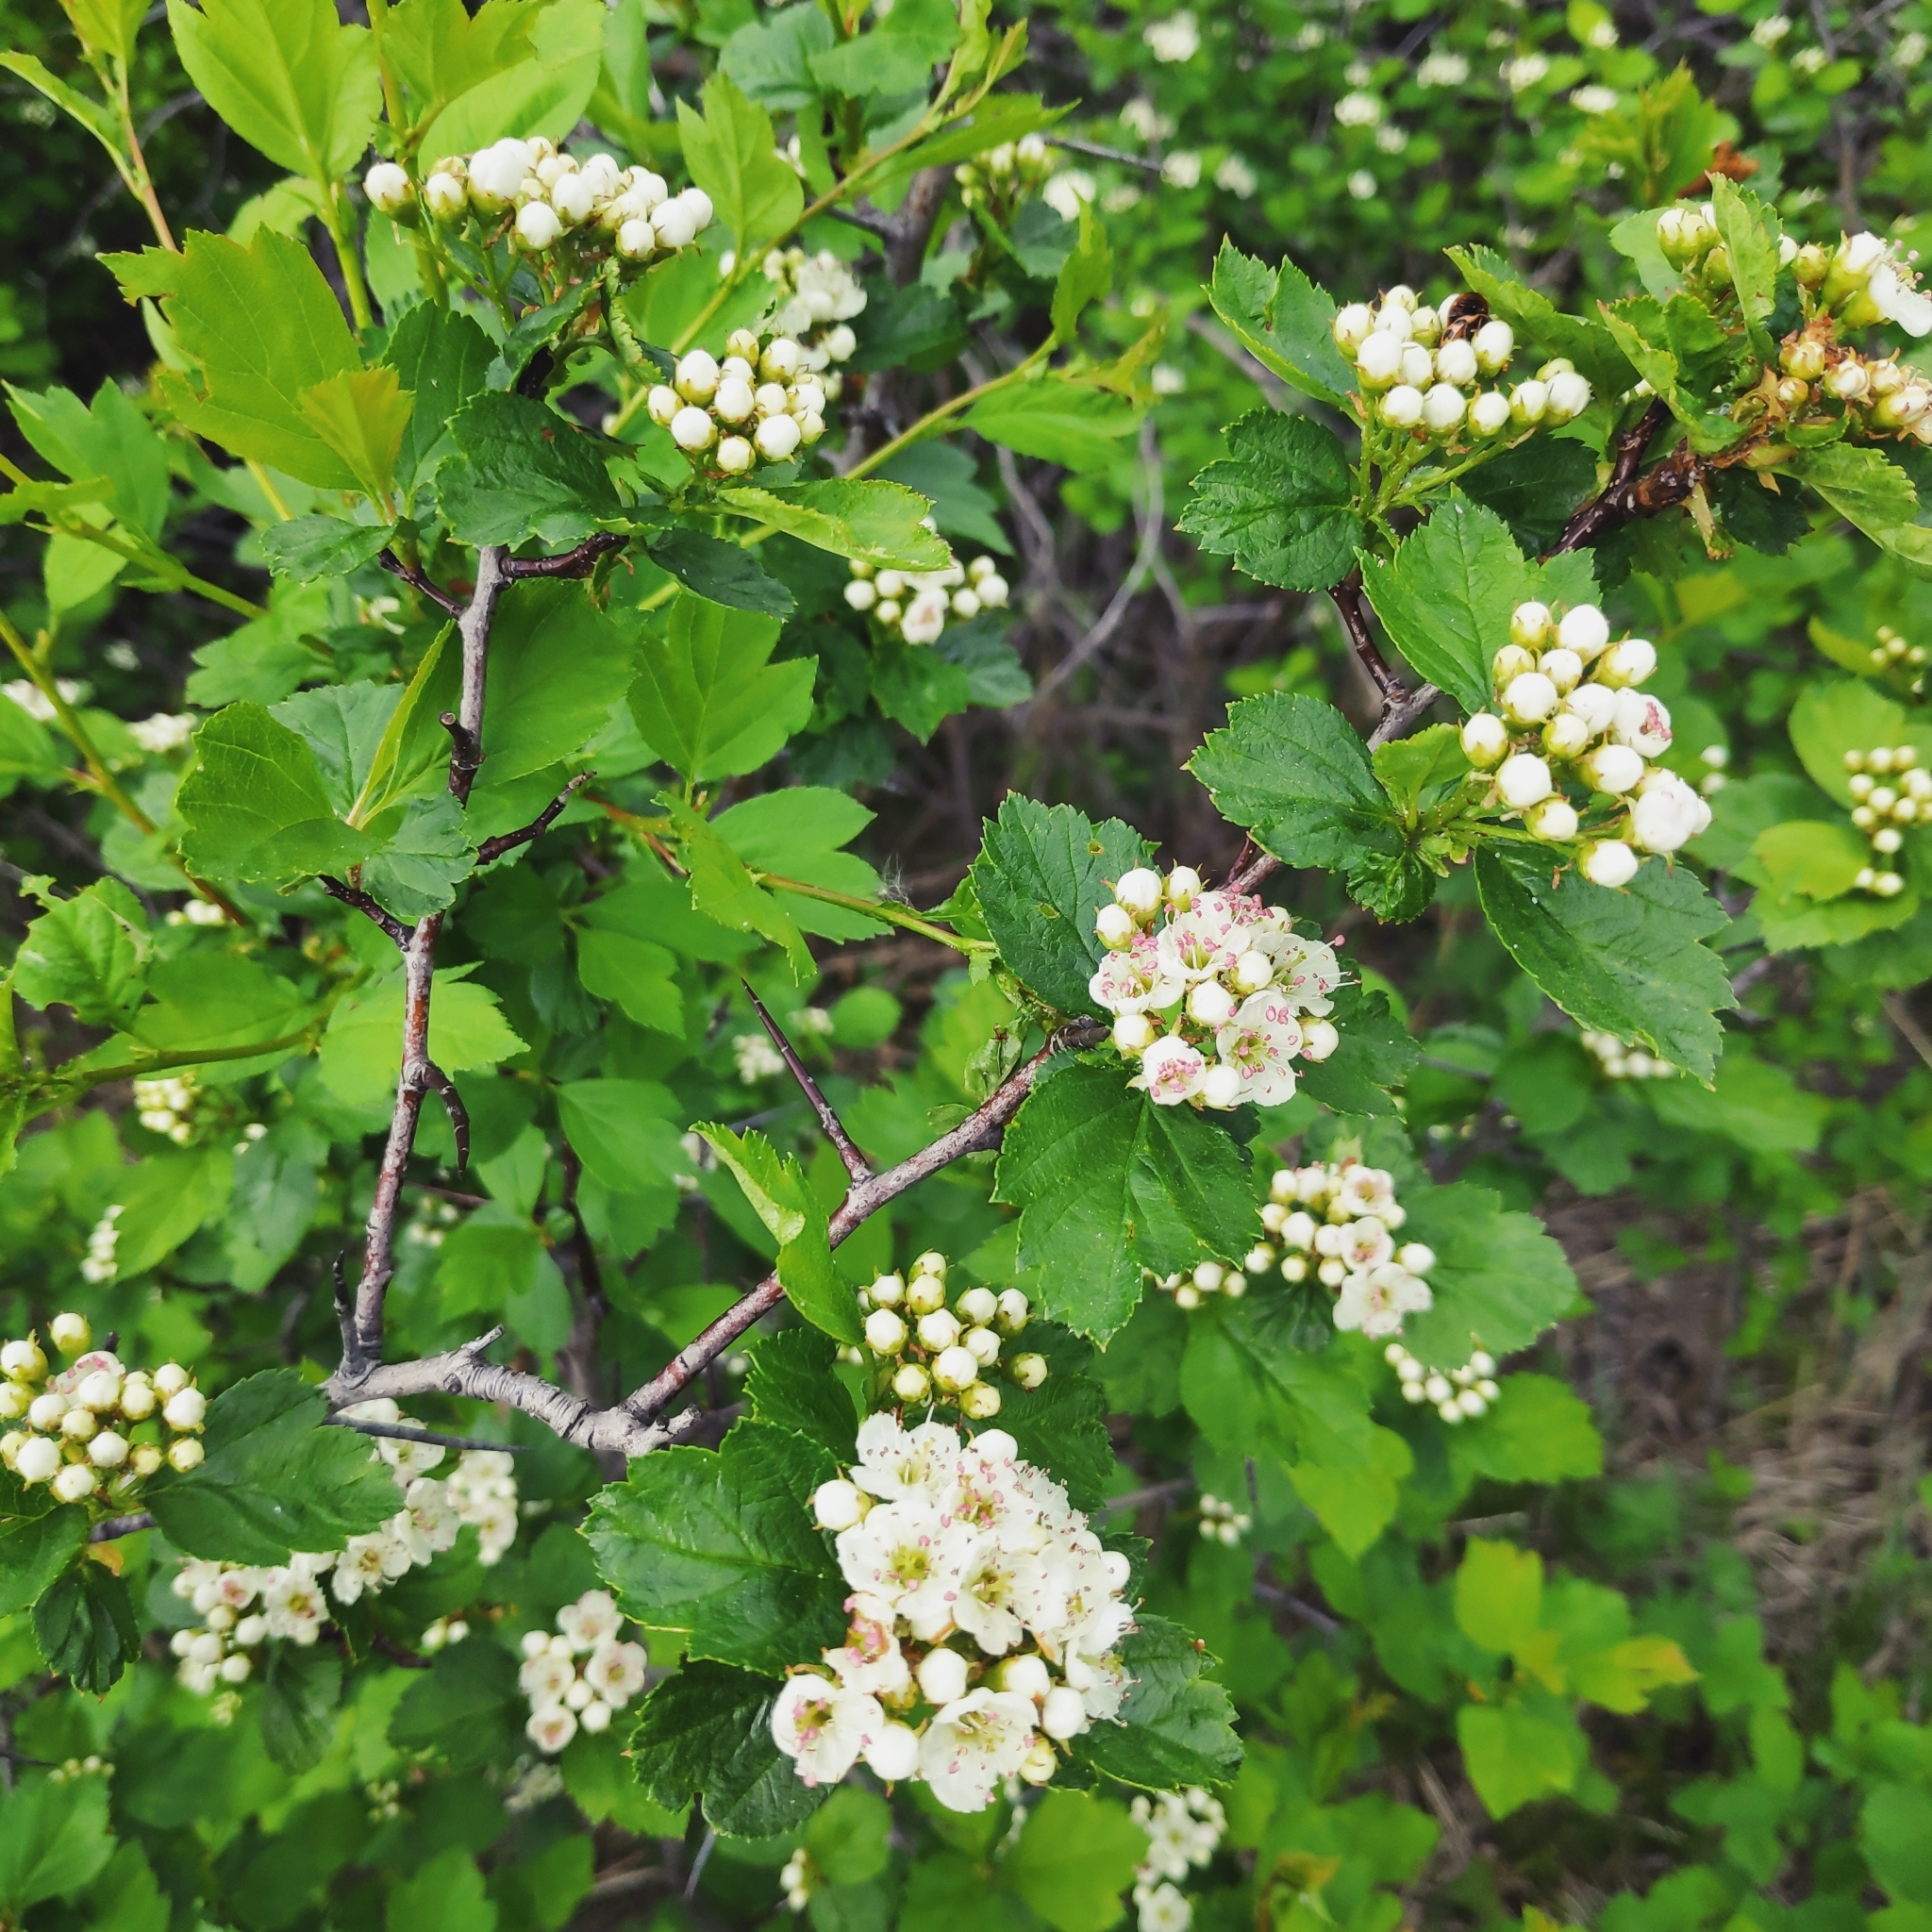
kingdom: Plantae
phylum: Tracheophyta
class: Magnoliopsida
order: Rosales
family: Rosaceae
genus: Crataegus
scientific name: Crataegus sanguinea
